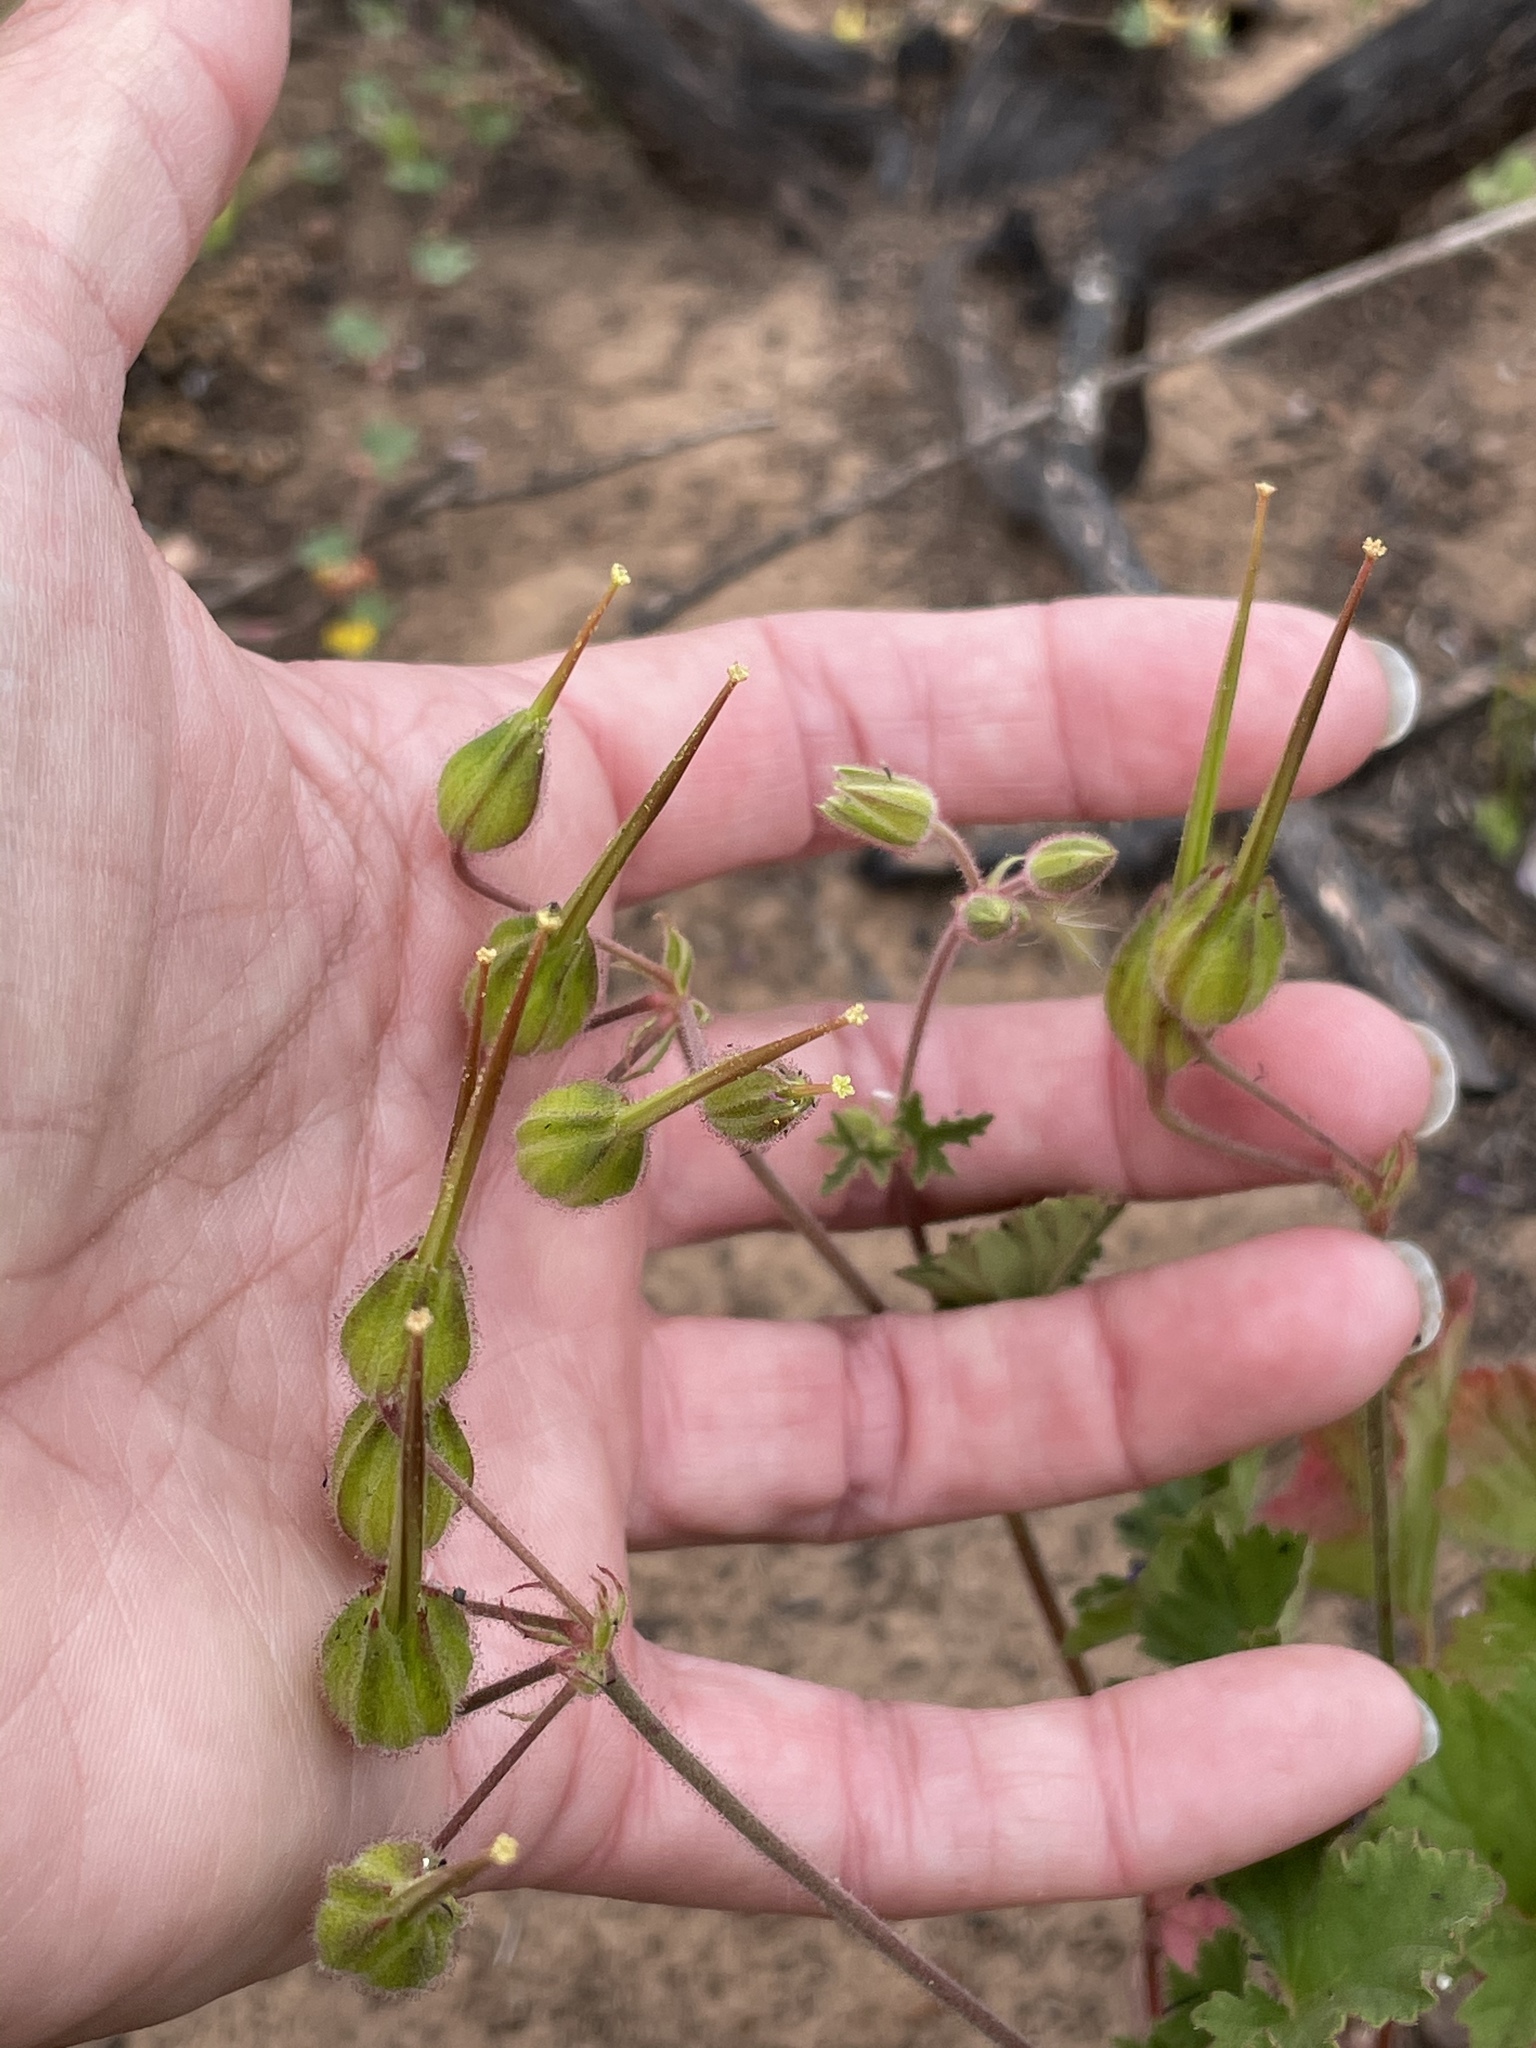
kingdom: Plantae
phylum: Tracheophyta
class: Magnoliopsida
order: Geraniales
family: Geraniaceae
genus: California
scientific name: California macrophylla
